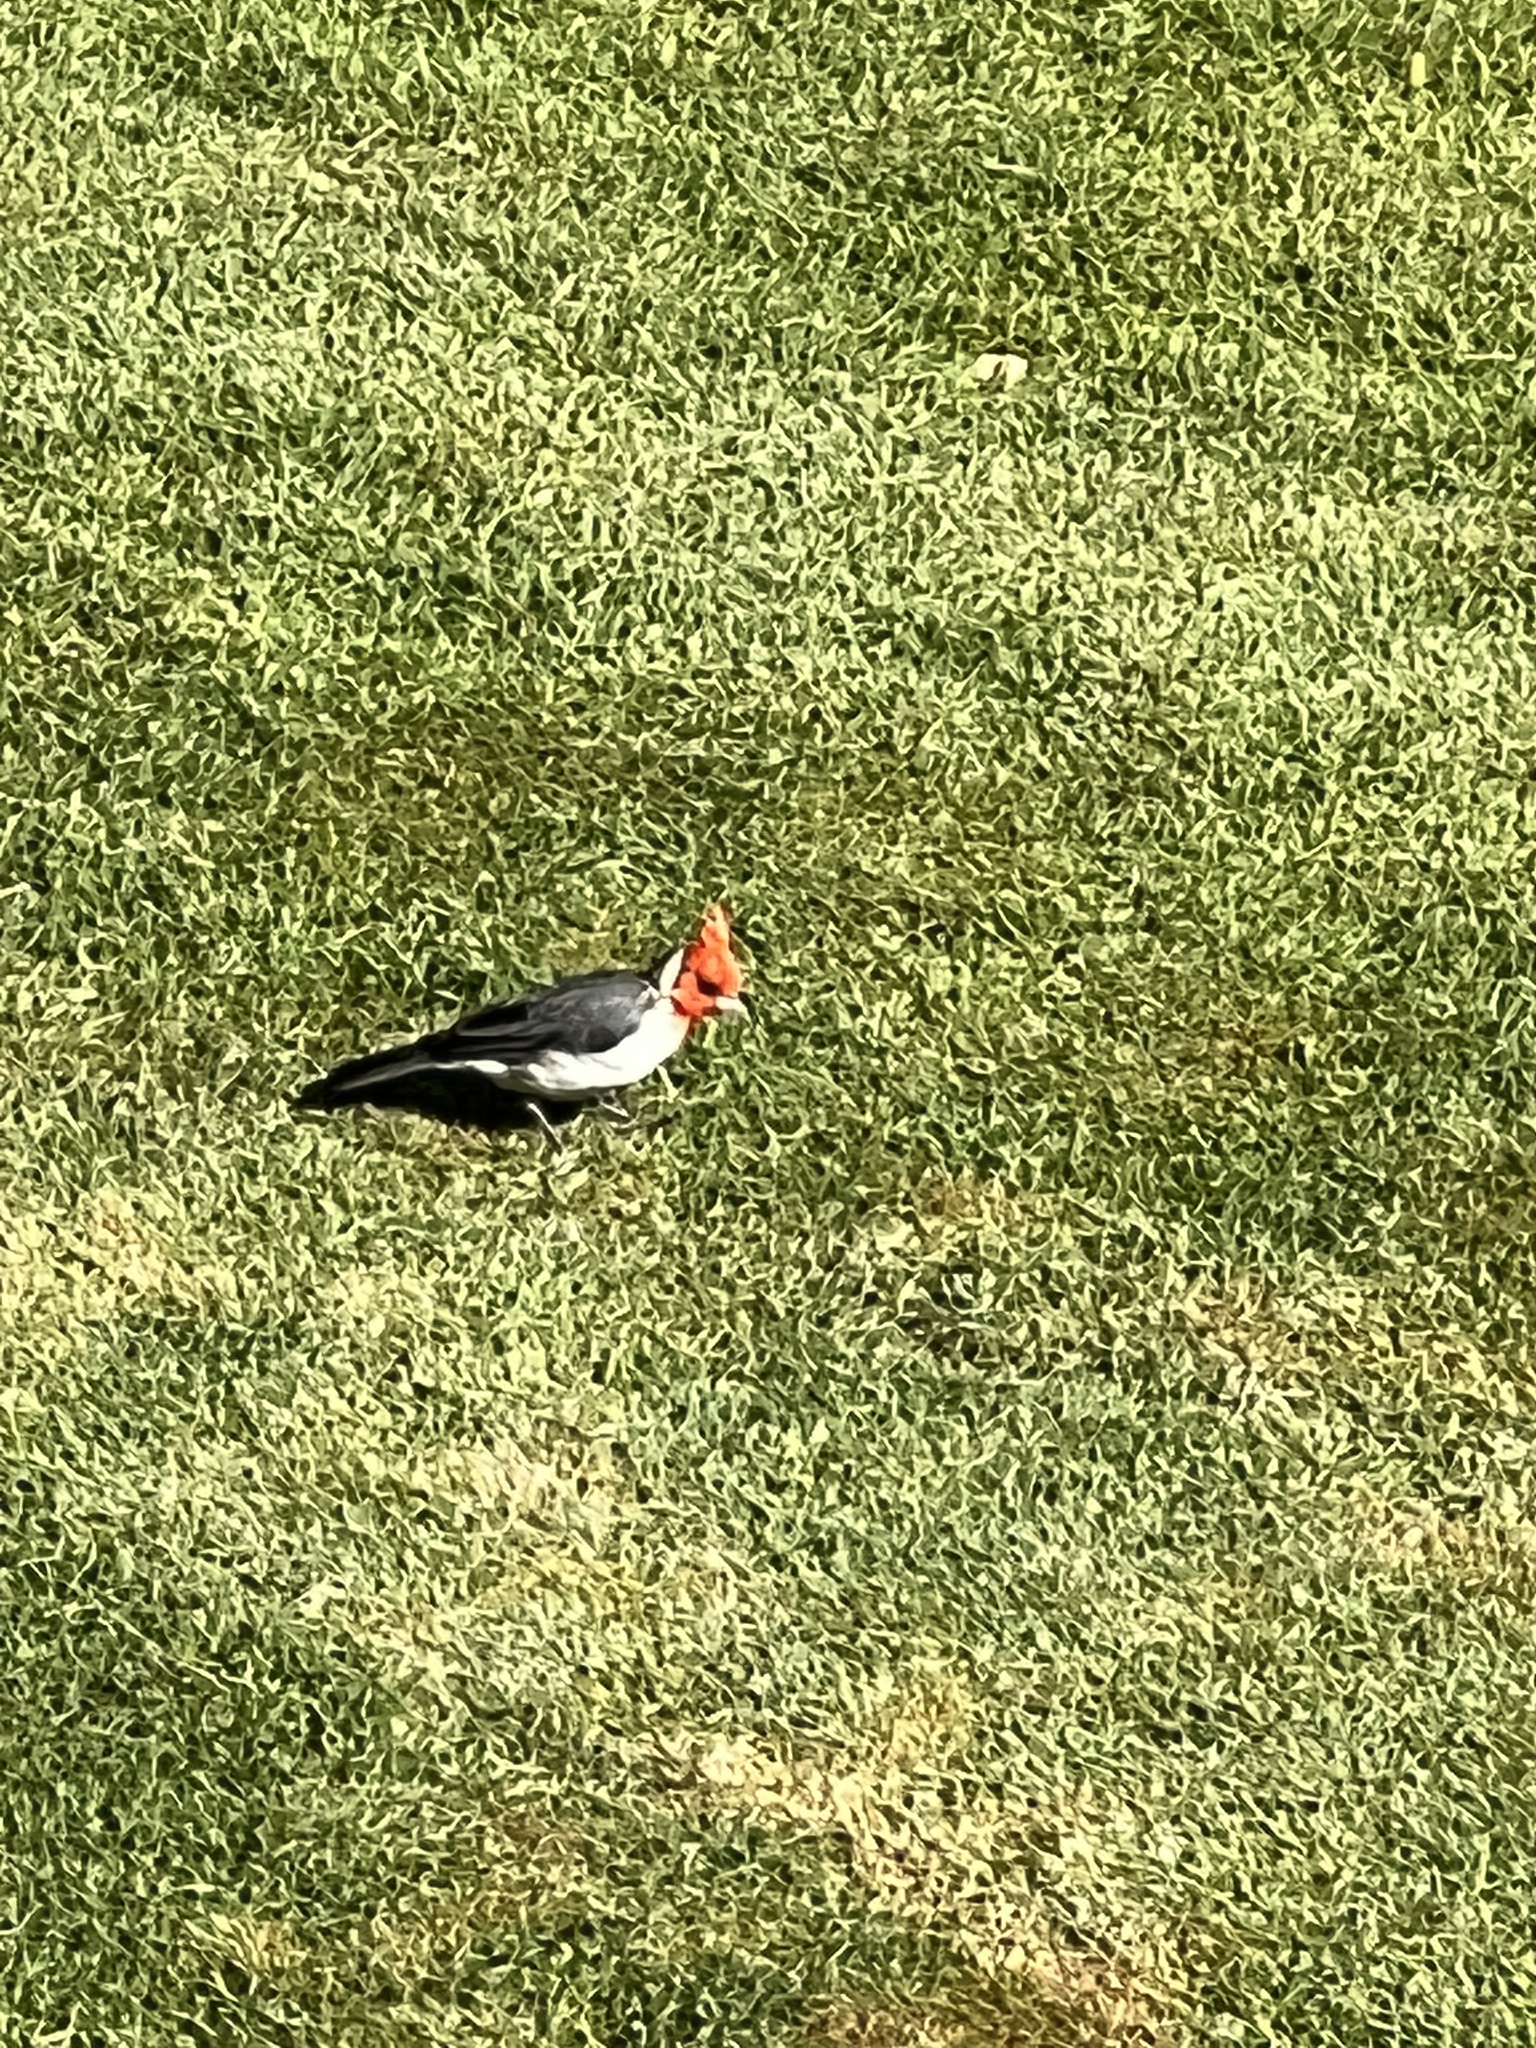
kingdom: Animalia
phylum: Chordata
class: Aves
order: Passeriformes
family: Thraupidae
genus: Paroaria
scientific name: Paroaria coronata
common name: Red-crested cardinal
